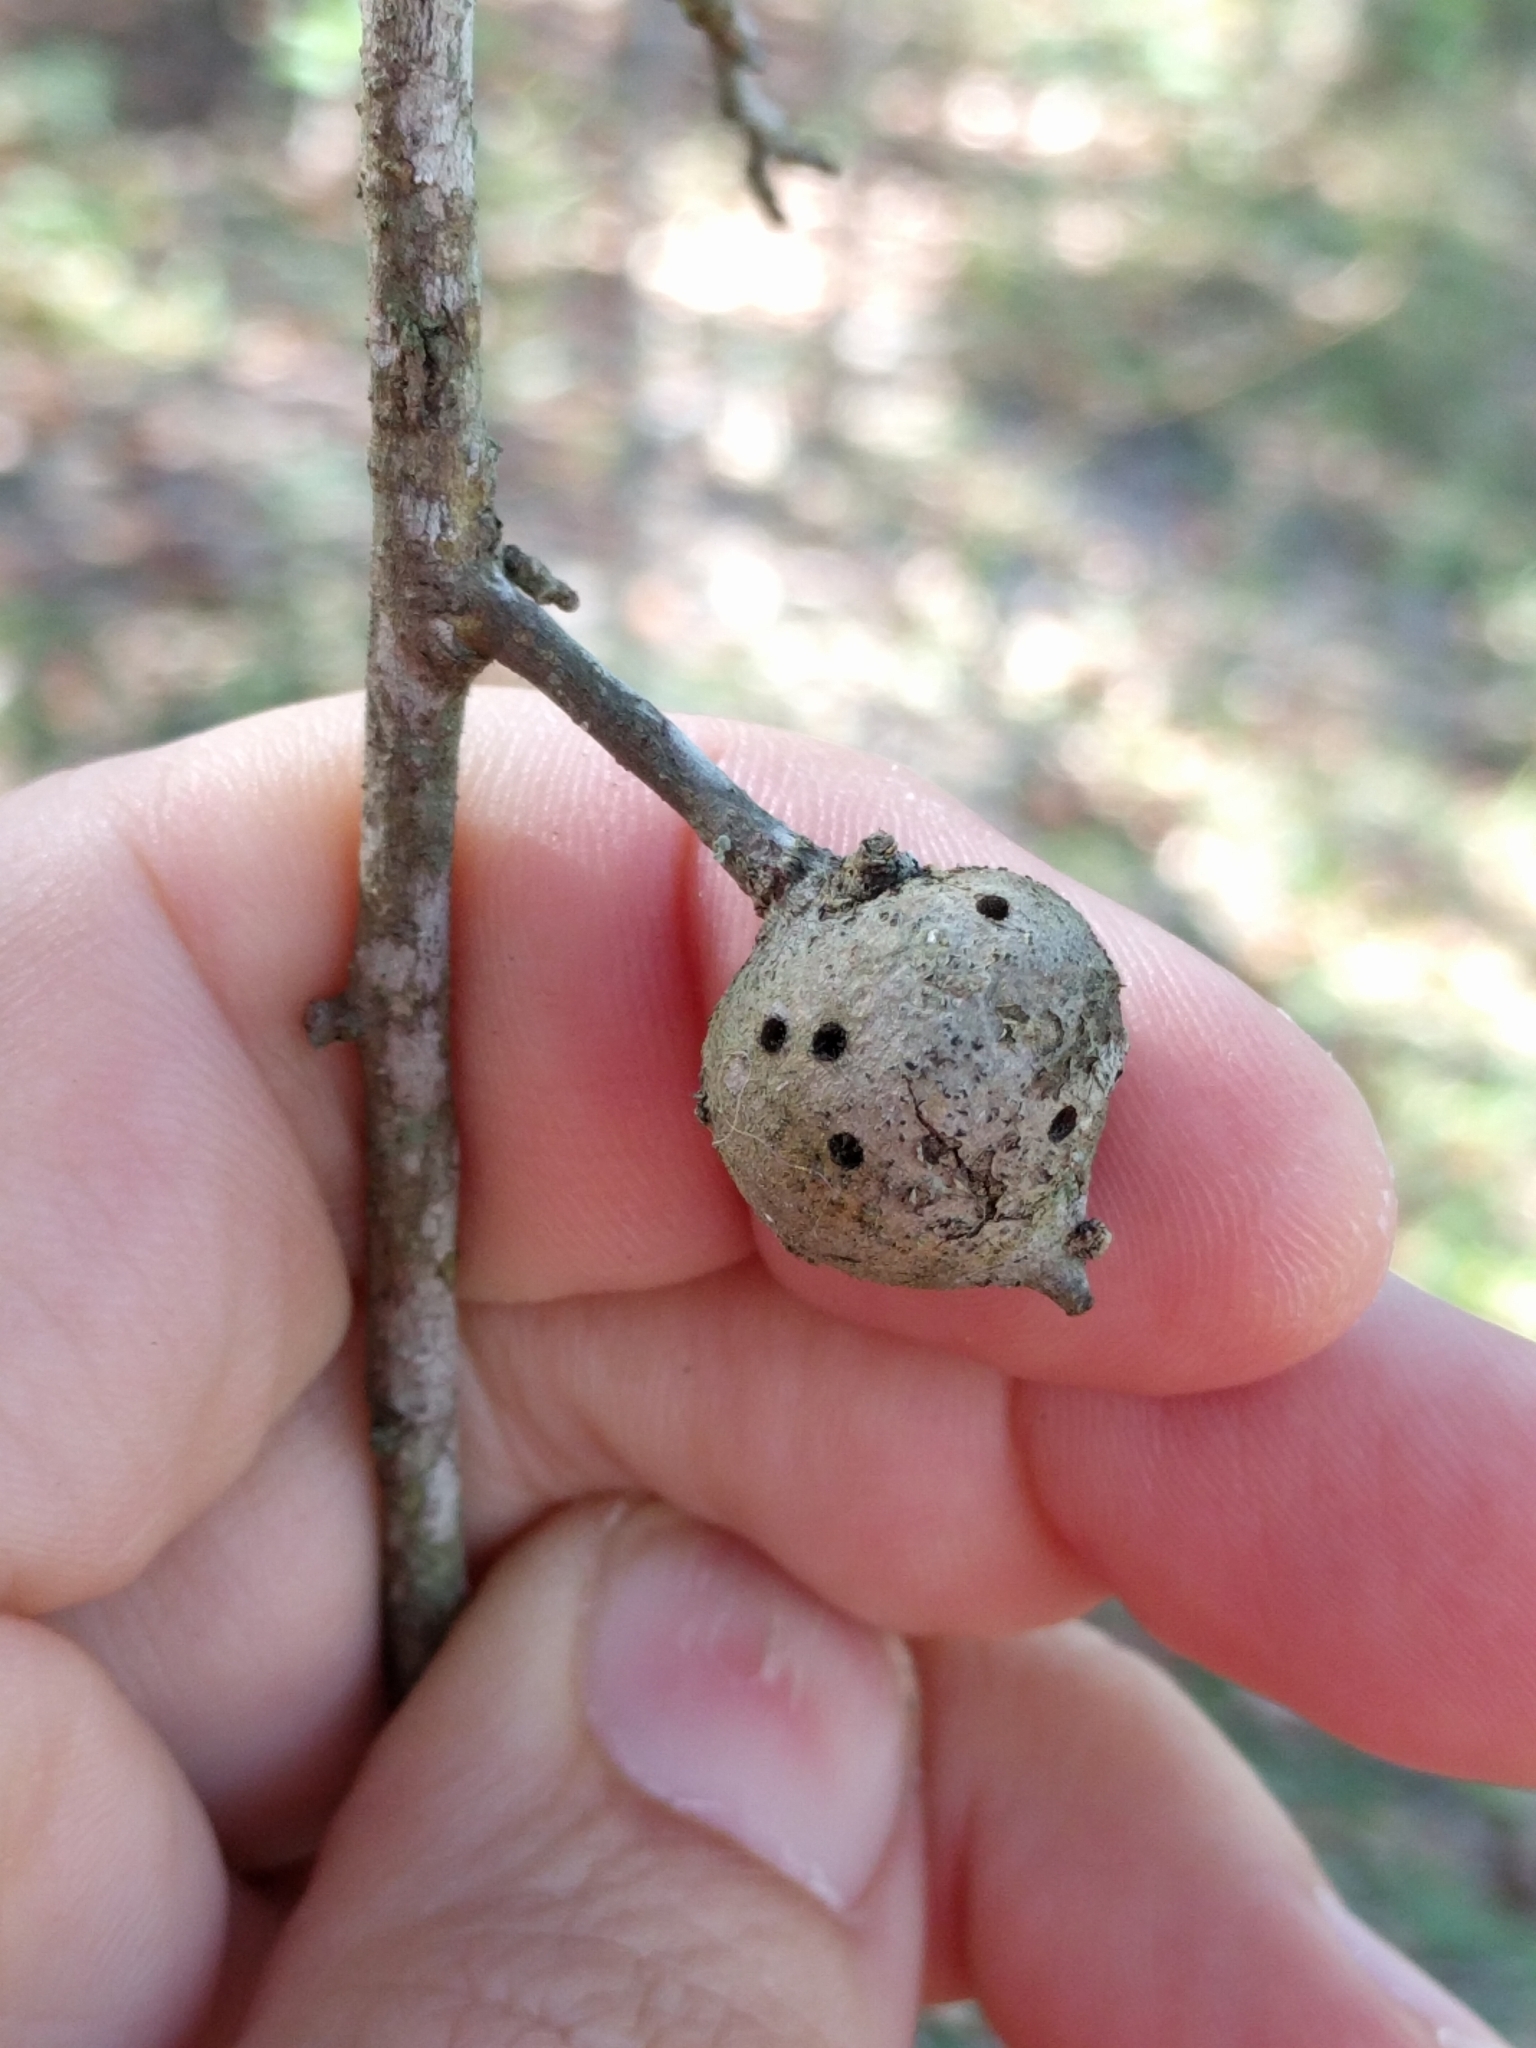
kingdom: Animalia
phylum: Arthropoda
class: Insecta
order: Hymenoptera
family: Cynipidae
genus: Callirhytis
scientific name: Callirhytis
